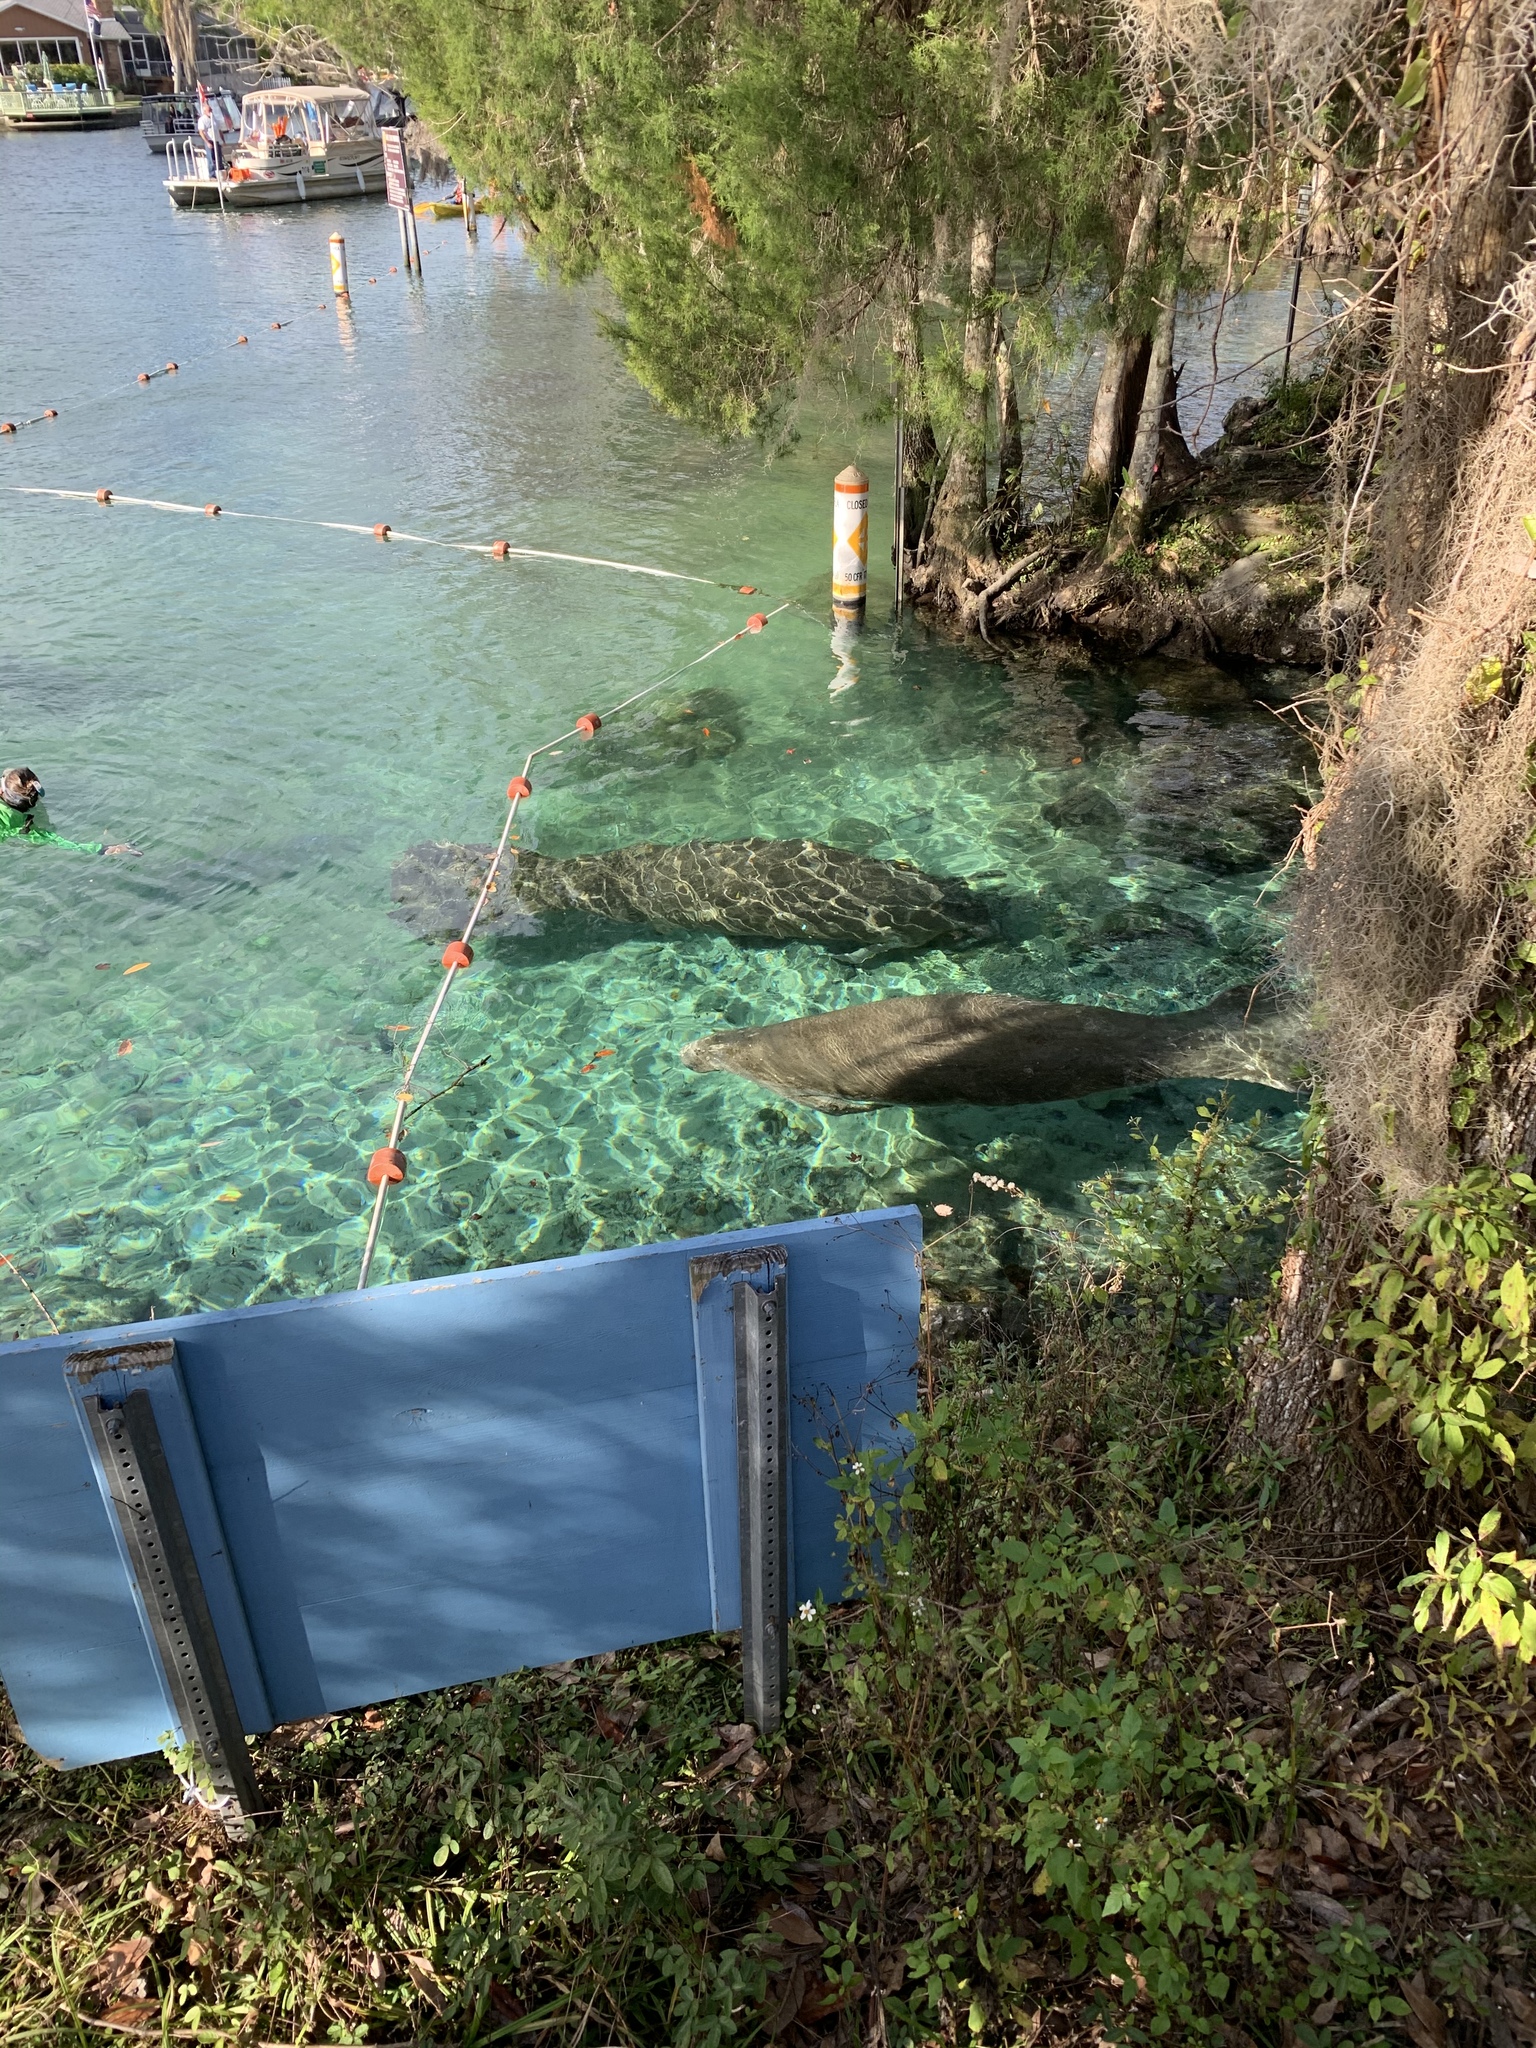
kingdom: Animalia
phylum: Chordata
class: Mammalia
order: Sirenia
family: Trichechidae
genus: Trichechus
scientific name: Trichechus manatus
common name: West indian manatee
